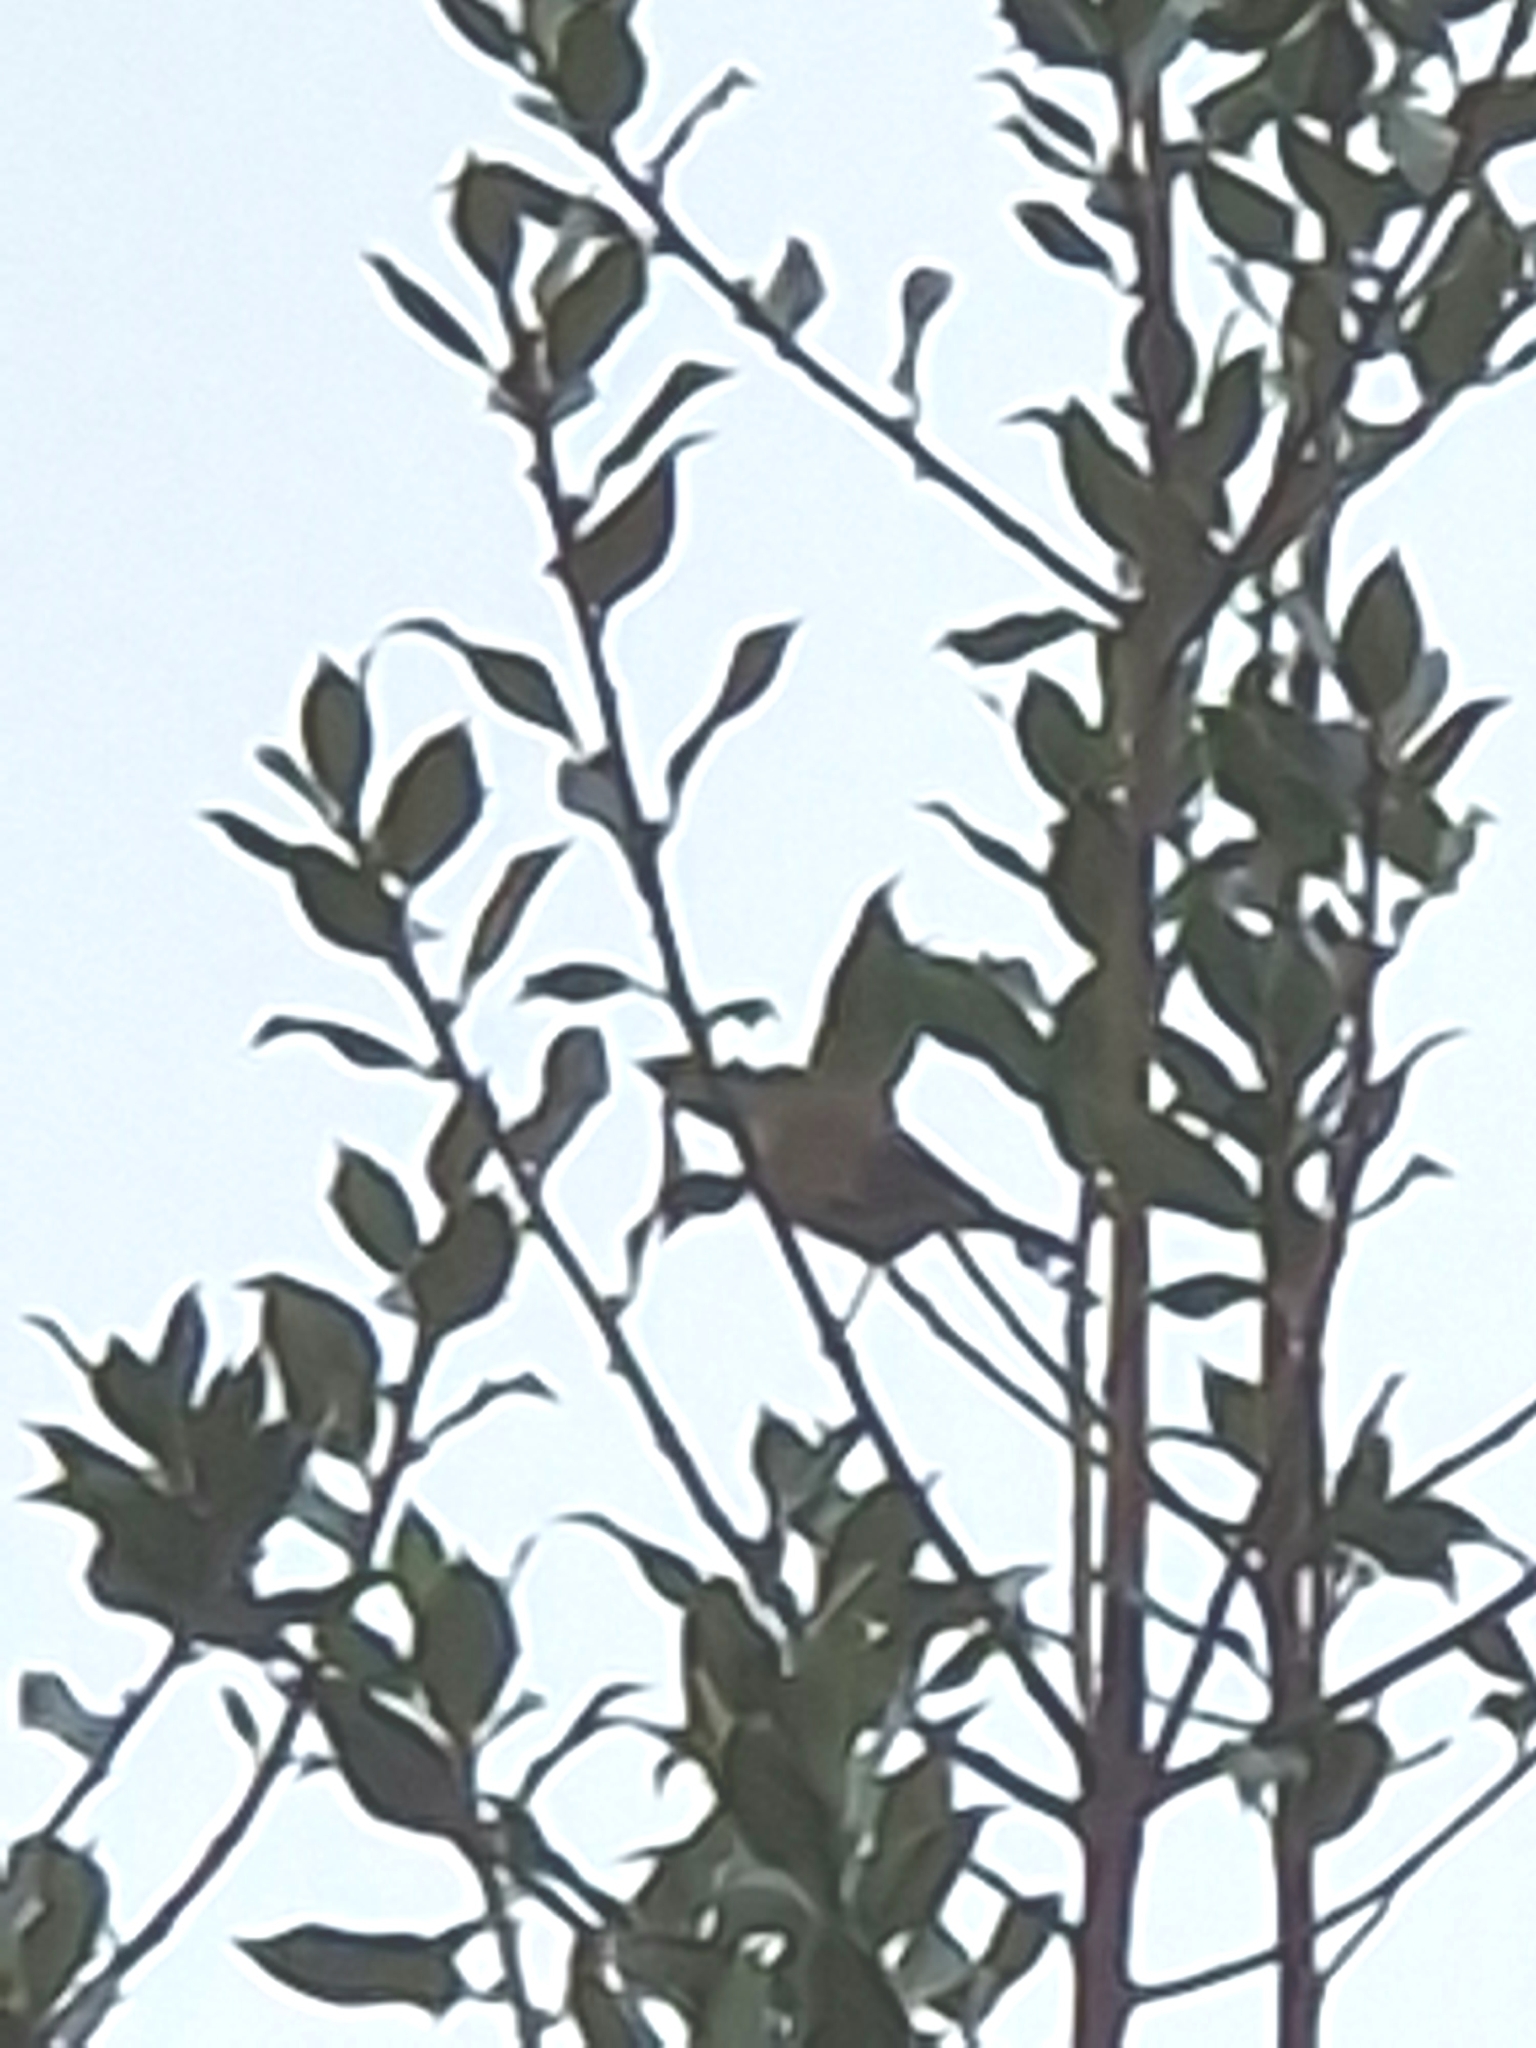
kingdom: Animalia
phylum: Chordata
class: Aves
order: Passeriformes
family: Prunellidae
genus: Prunella
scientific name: Prunella modularis
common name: Dunnock
